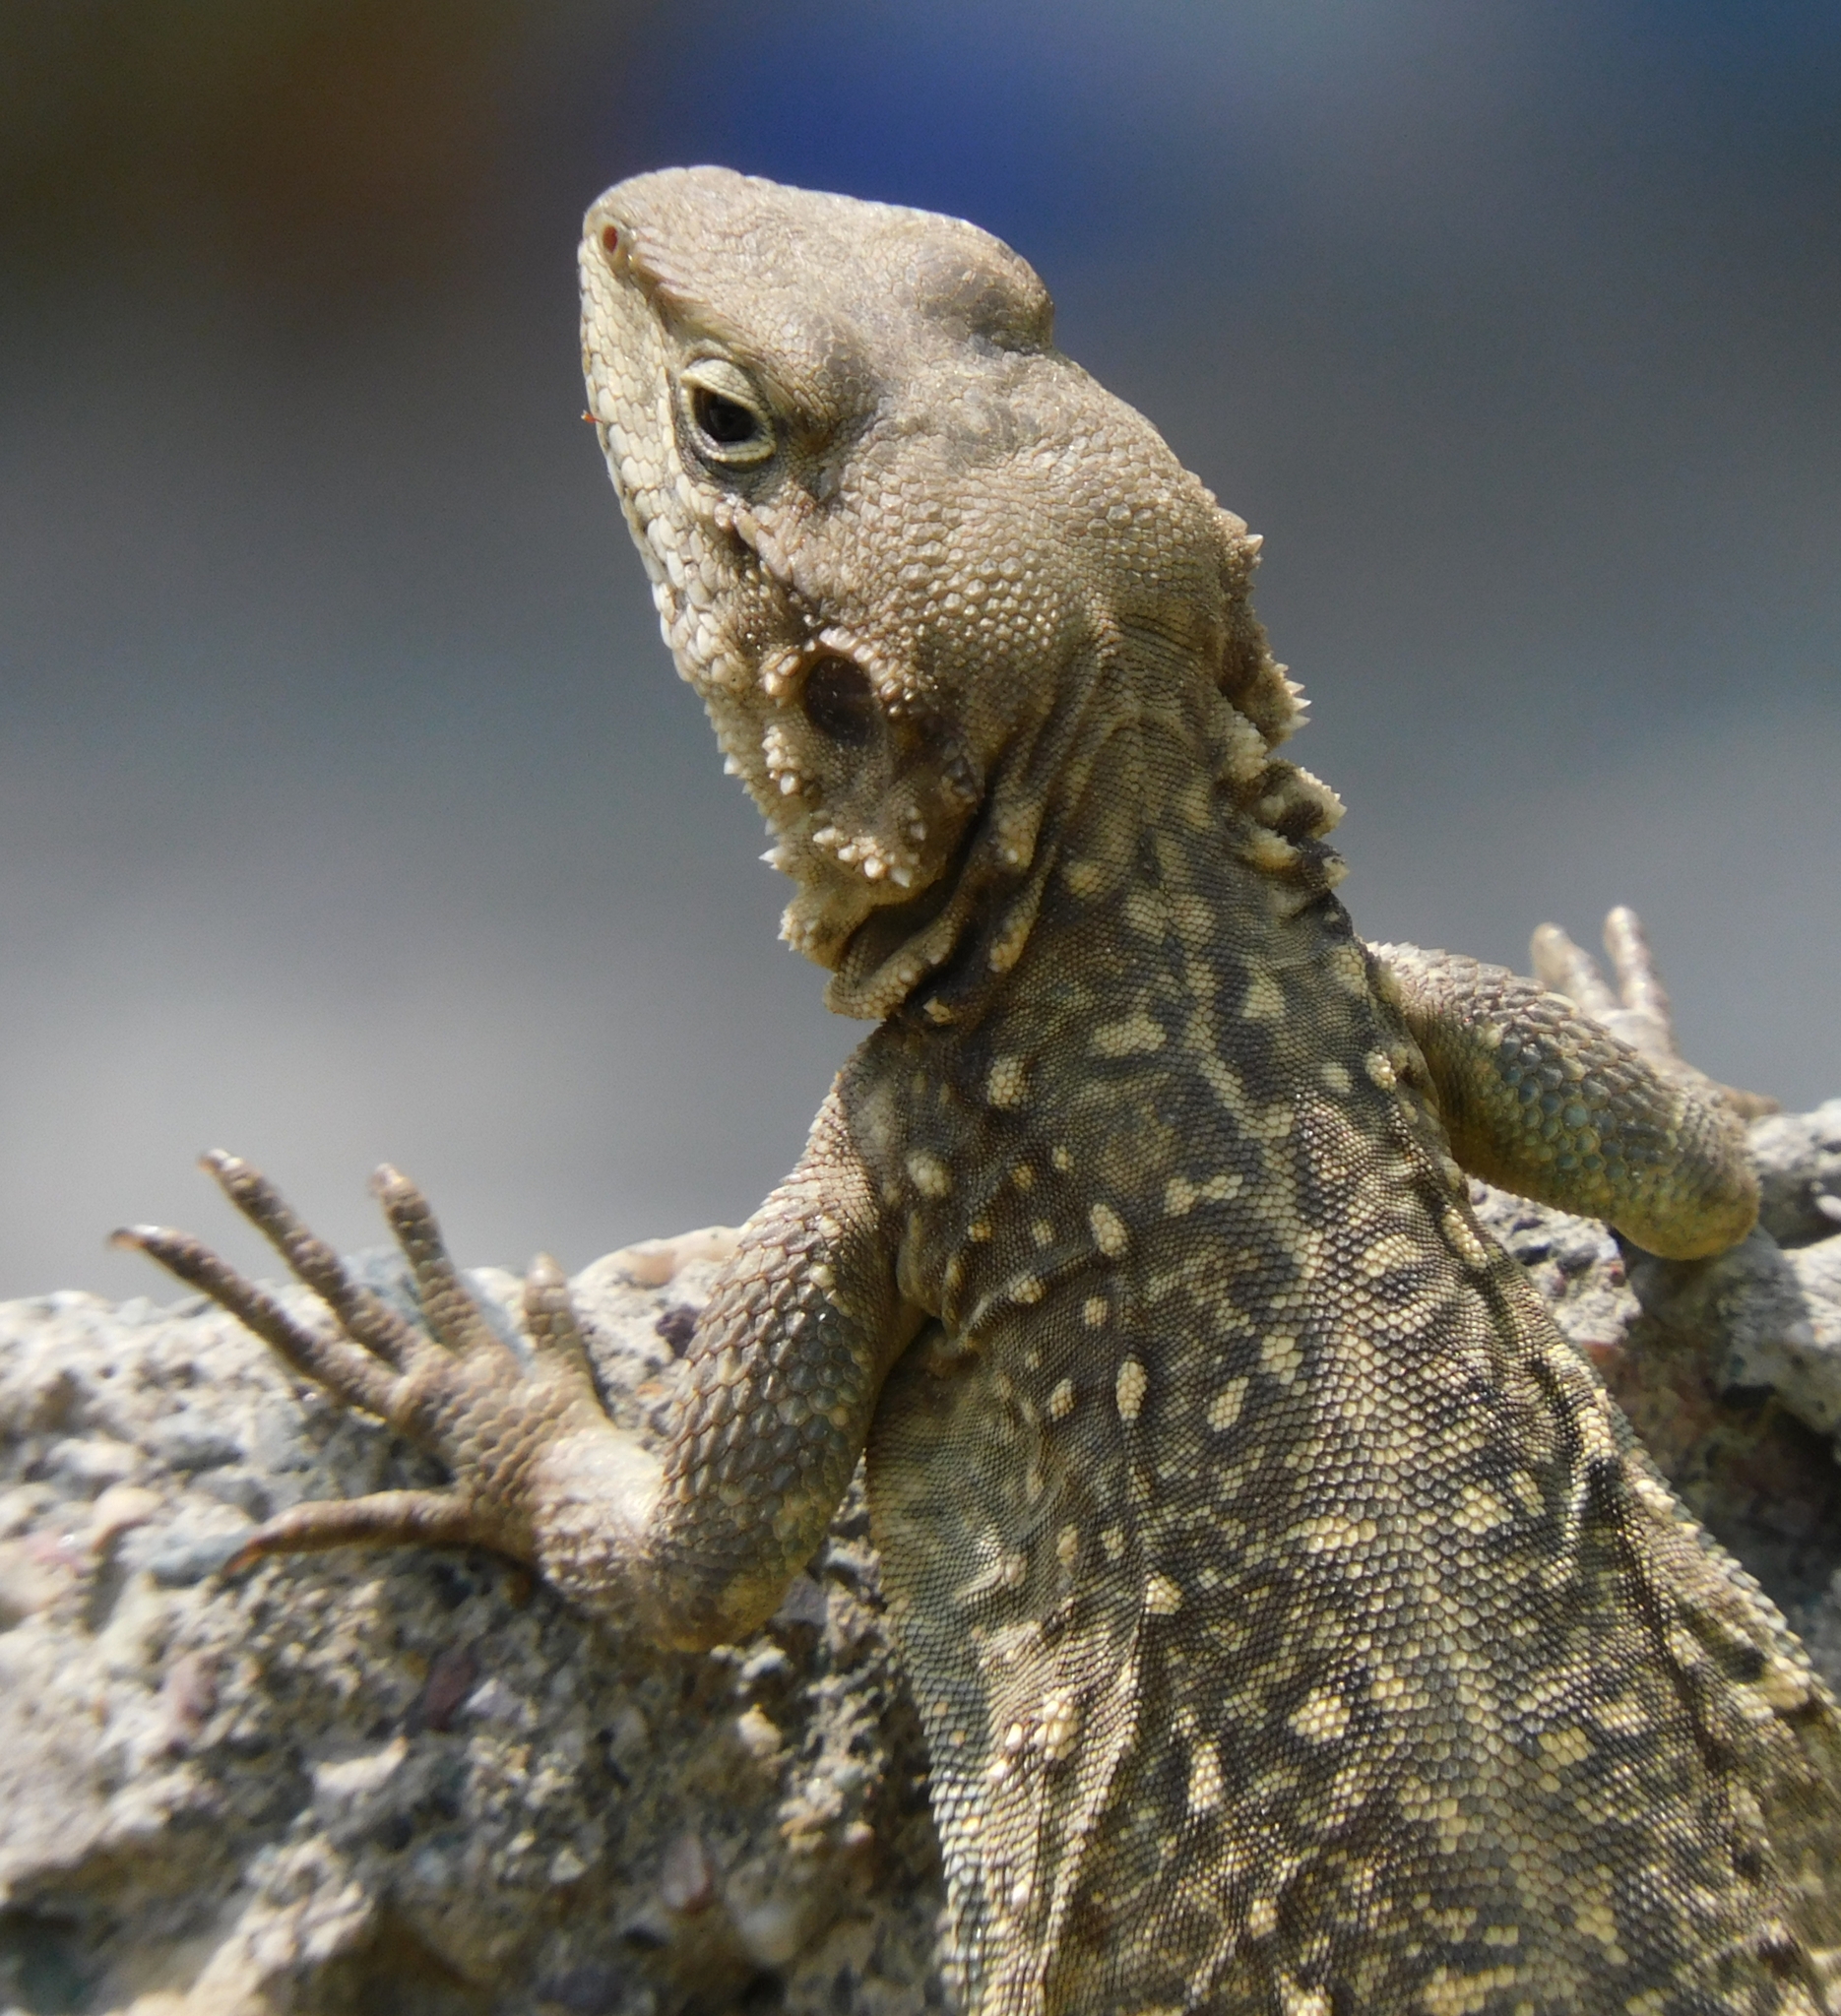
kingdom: Animalia
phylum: Chordata
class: Squamata
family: Agamidae
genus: Laudakia
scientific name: Laudakia tuberculata
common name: Kashmir rock agama
